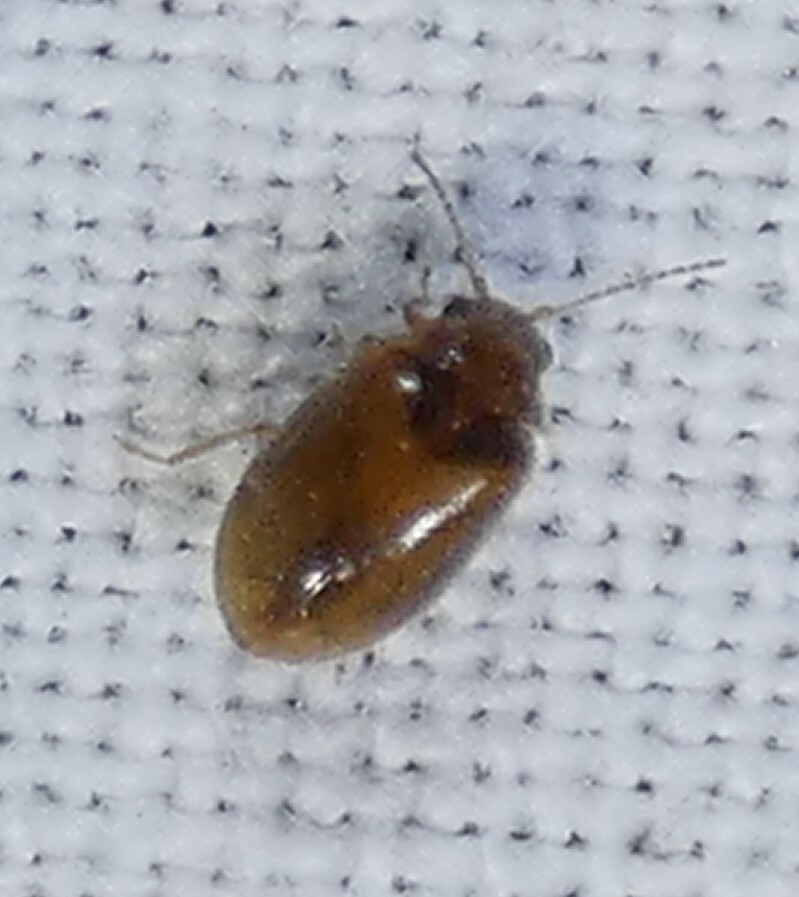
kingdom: Animalia
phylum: Arthropoda
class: Insecta
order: Coleoptera
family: Scirtidae
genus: Contacyphon
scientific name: Contacyphon
